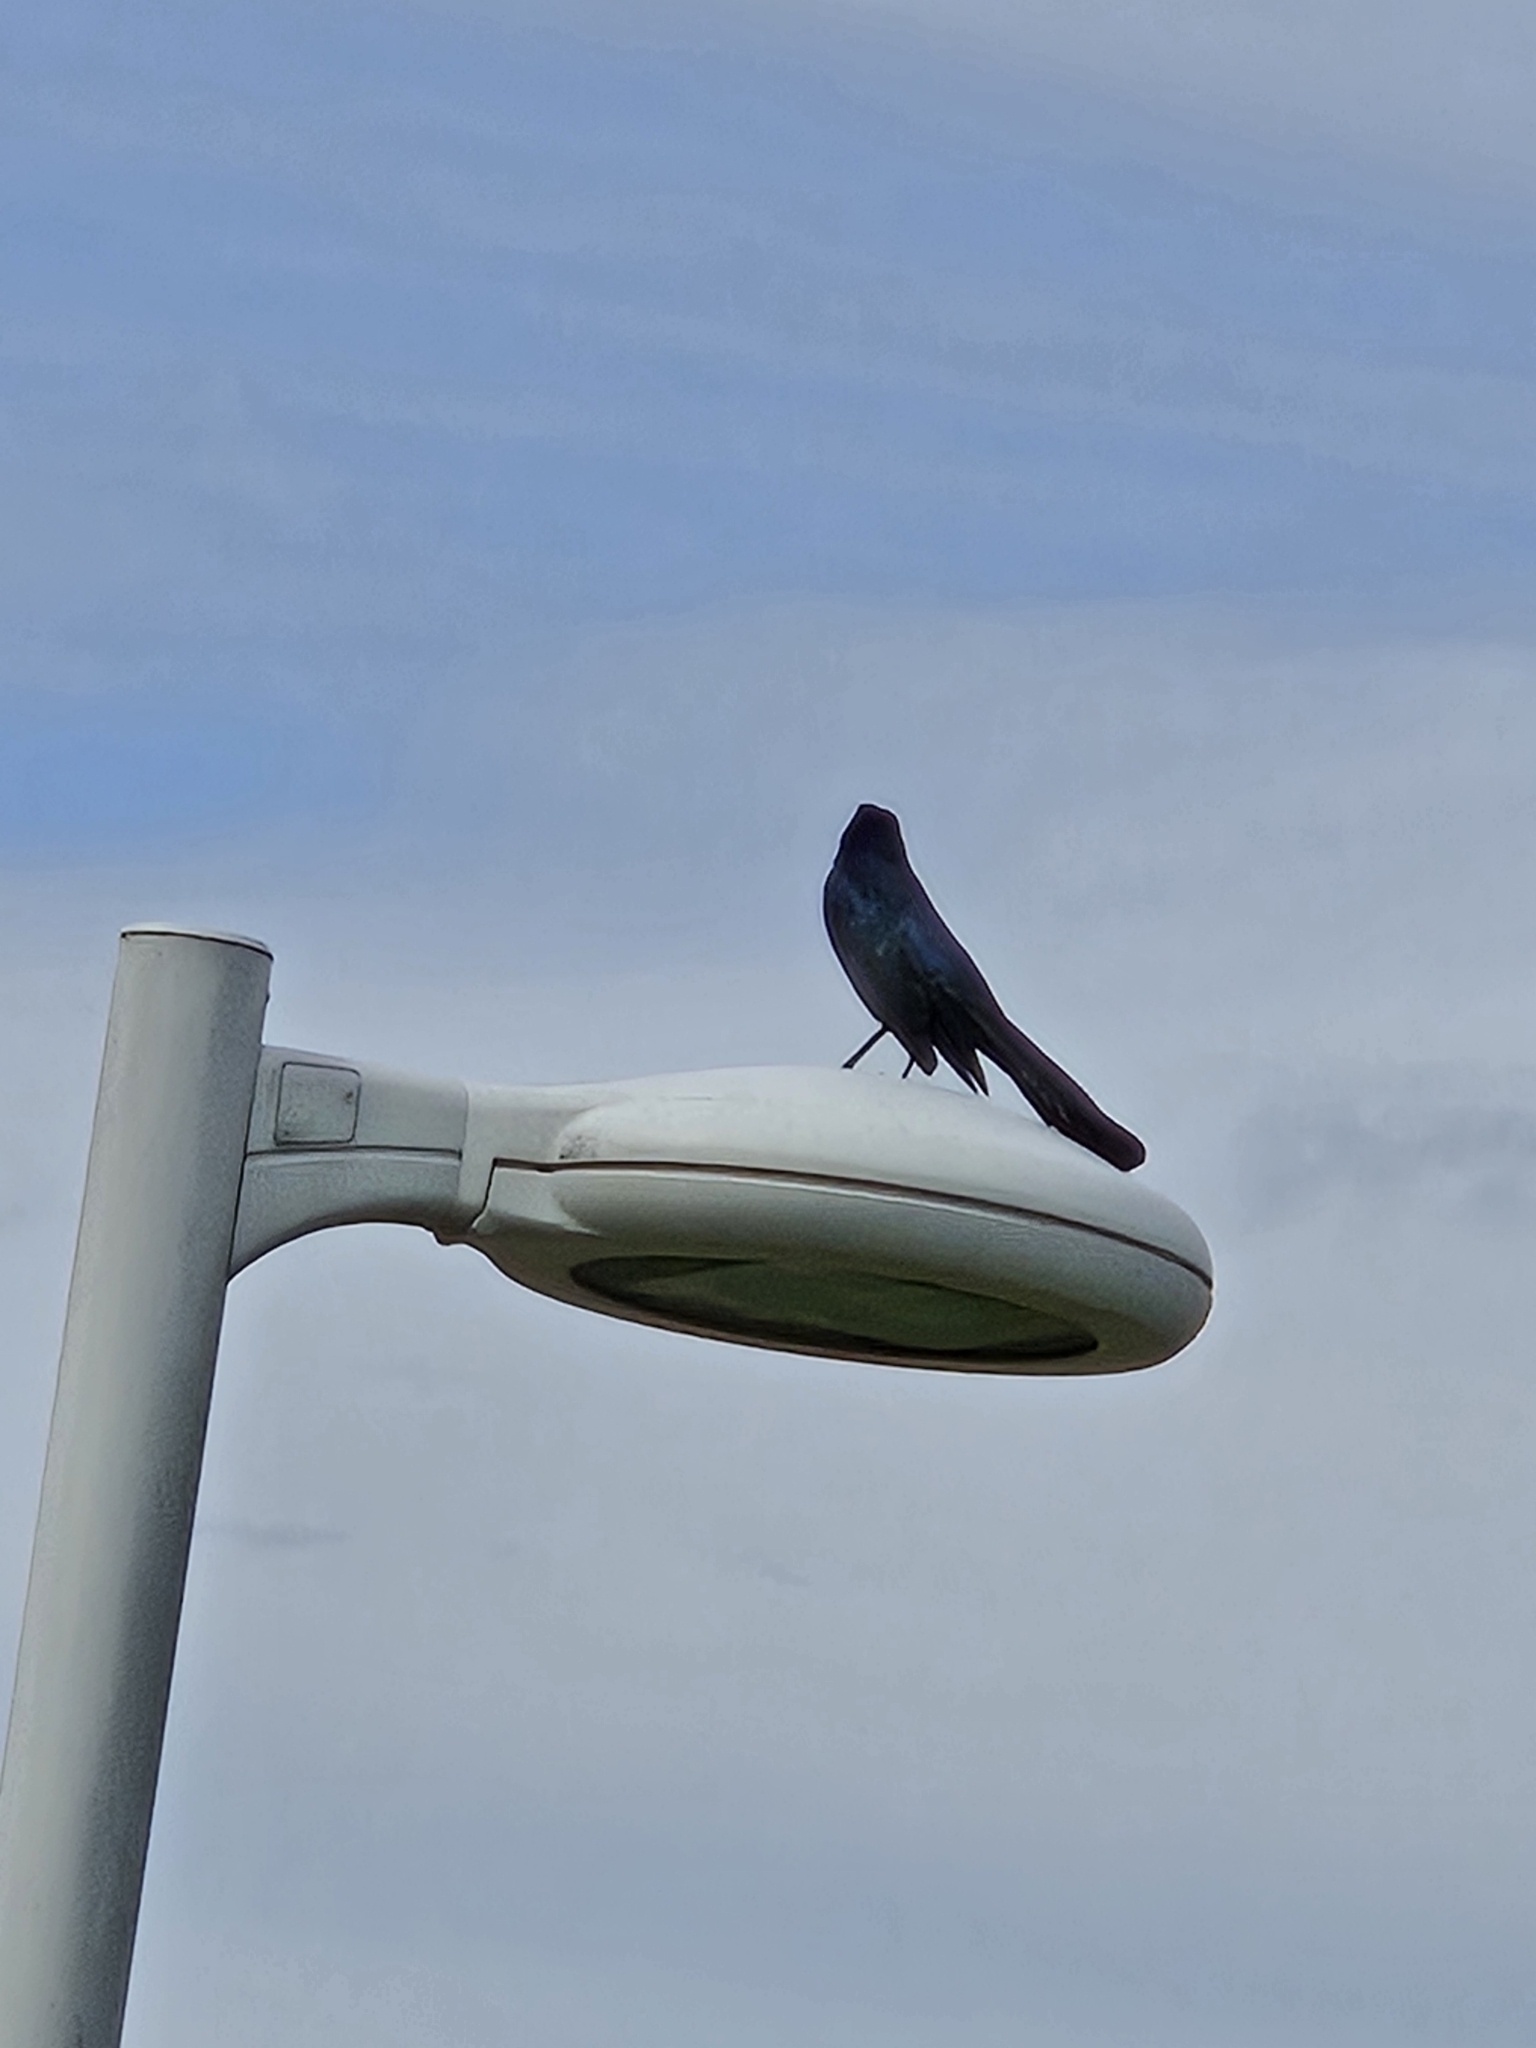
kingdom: Animalia
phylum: Chordata
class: Aves
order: Passeriformes
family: Icteridae
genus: Quiscalus
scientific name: Quiscalus mexicanus
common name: Great-tailed grackle
